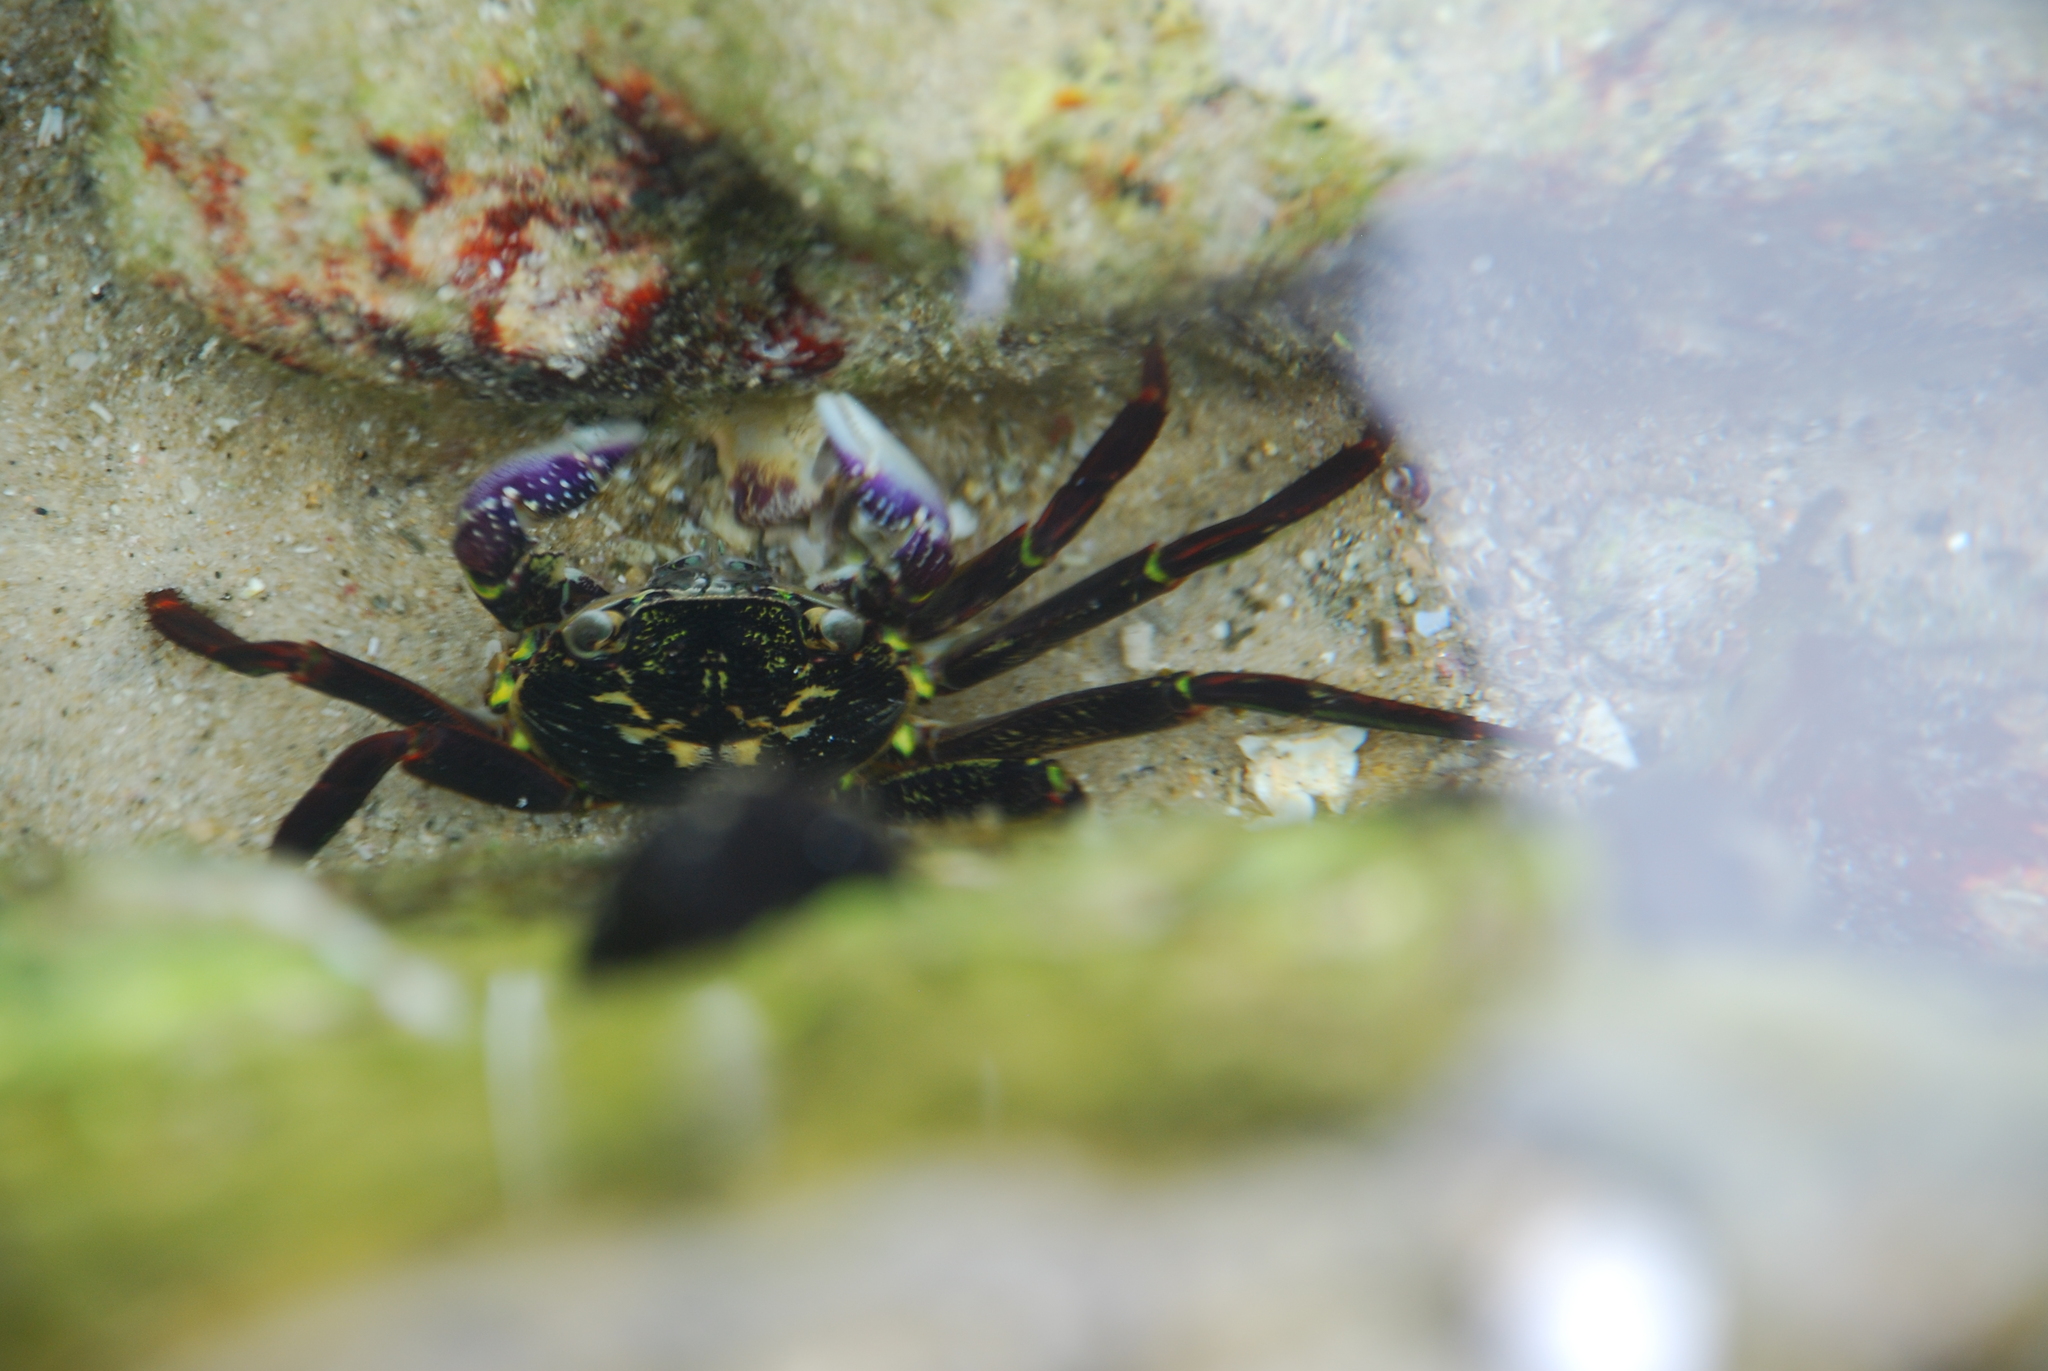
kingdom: Animalia
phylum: Arthropoda
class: Malacostraca
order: Decapoda
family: Grapsidae
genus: Leptograpsus
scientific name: Leptograpsus variegatus
